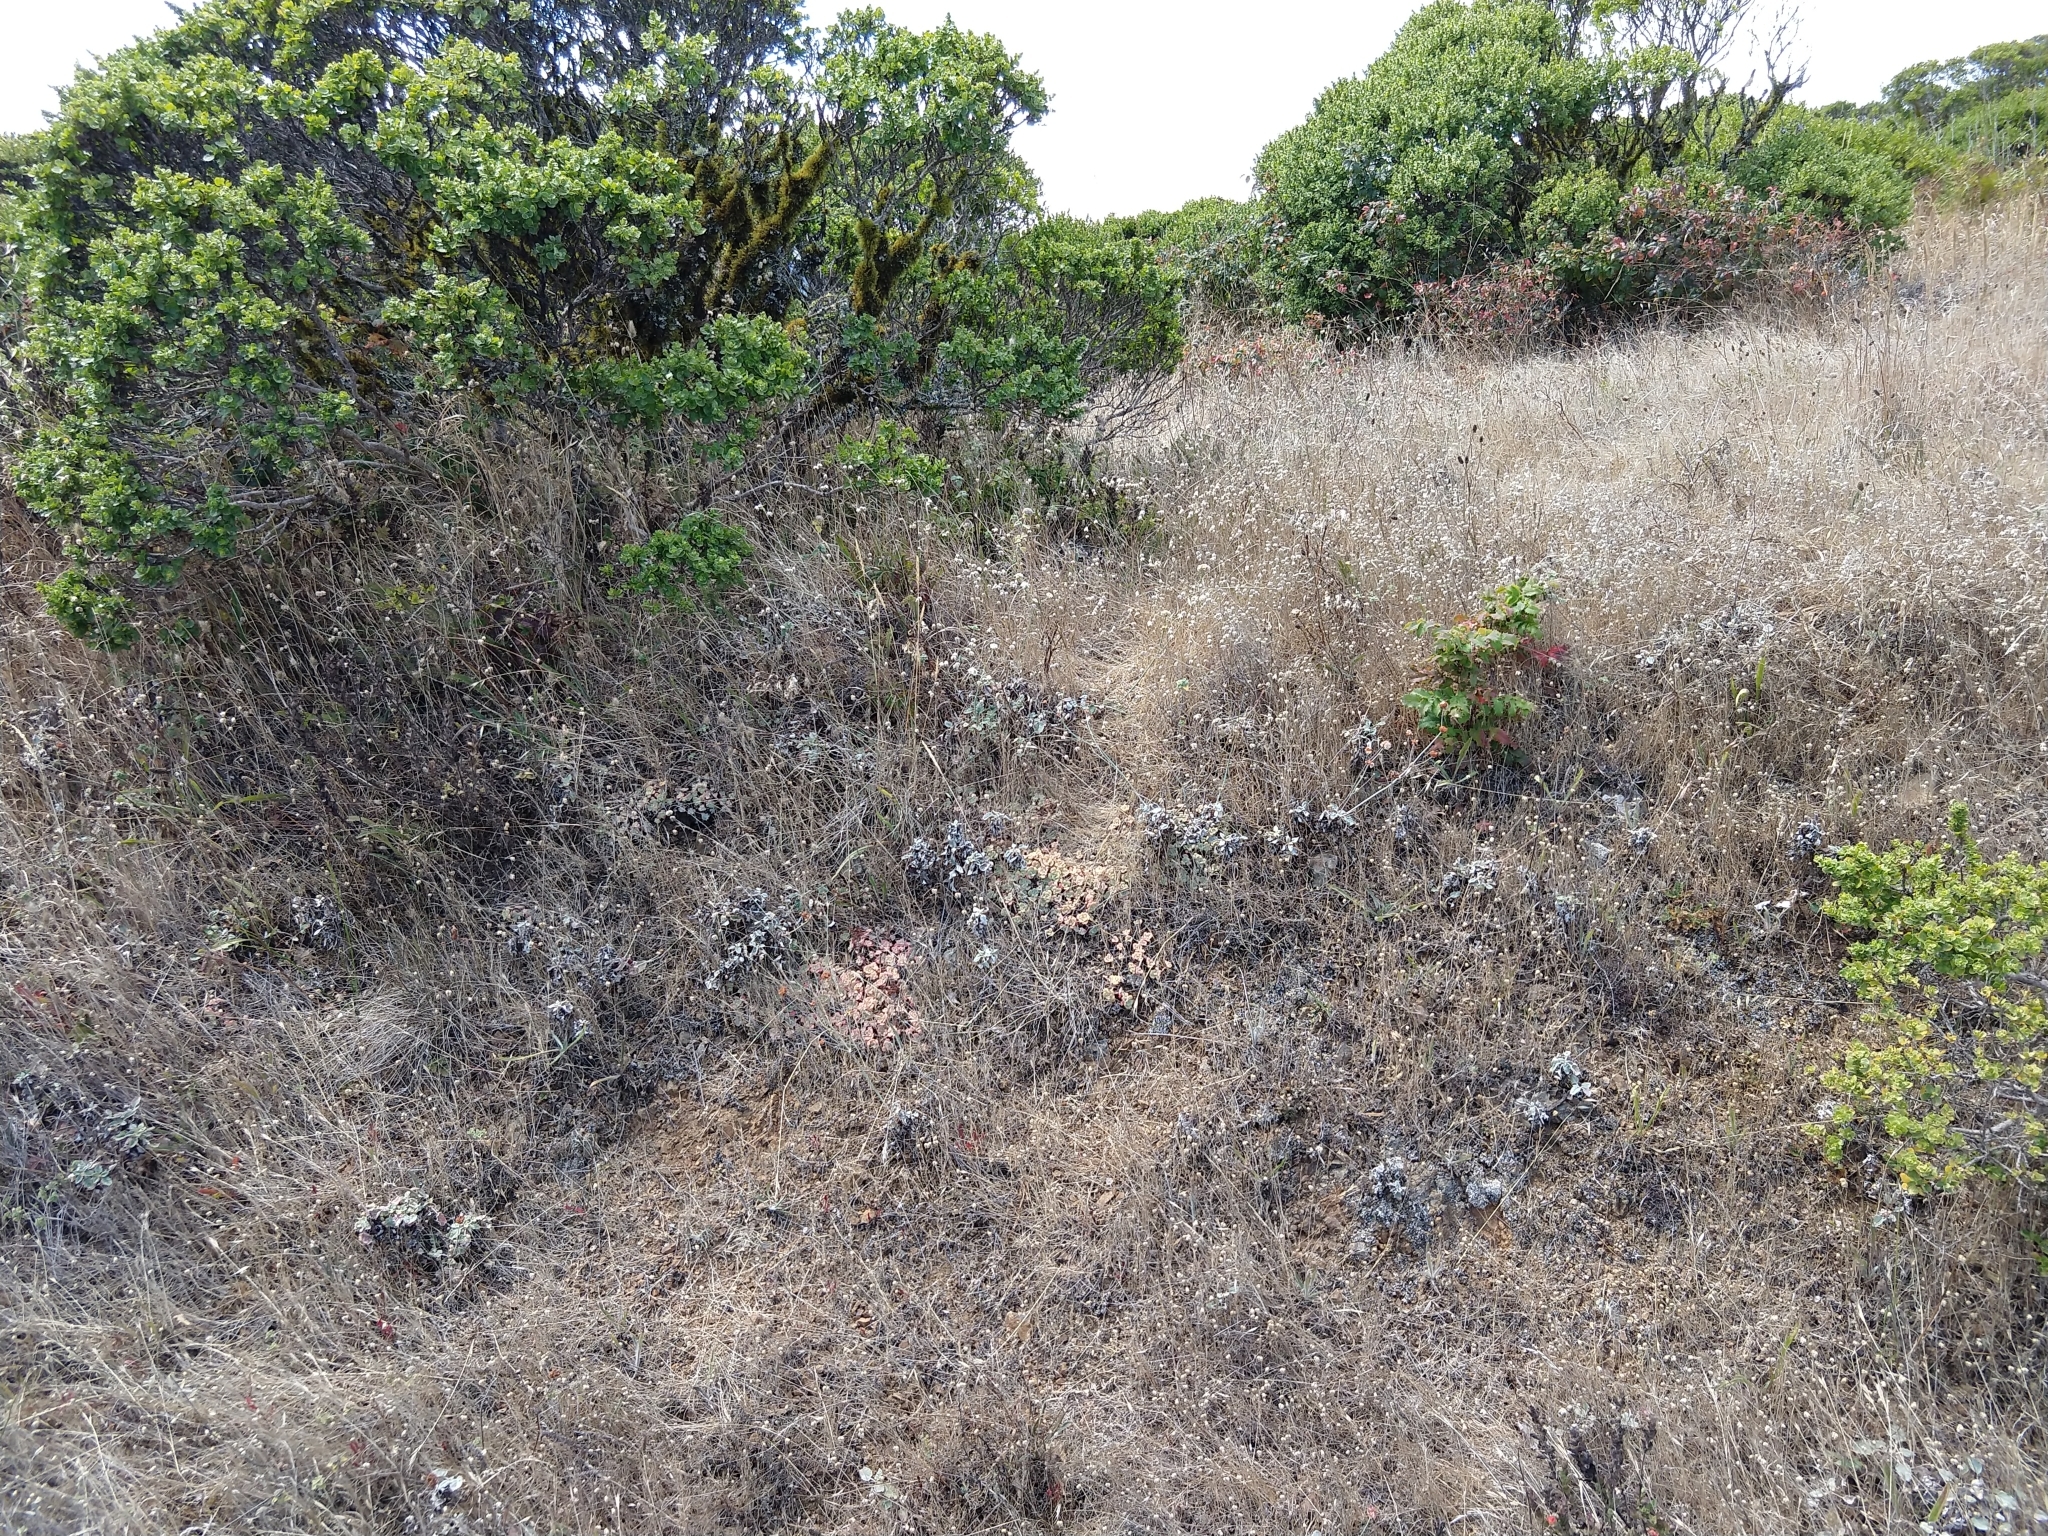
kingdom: Plantae
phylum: Tracheophyta
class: Magnoliopsida
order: Saxifragales
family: Crassulaceae
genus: Sedum
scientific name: Sedum spathulifolium
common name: Colorado stonecrop
